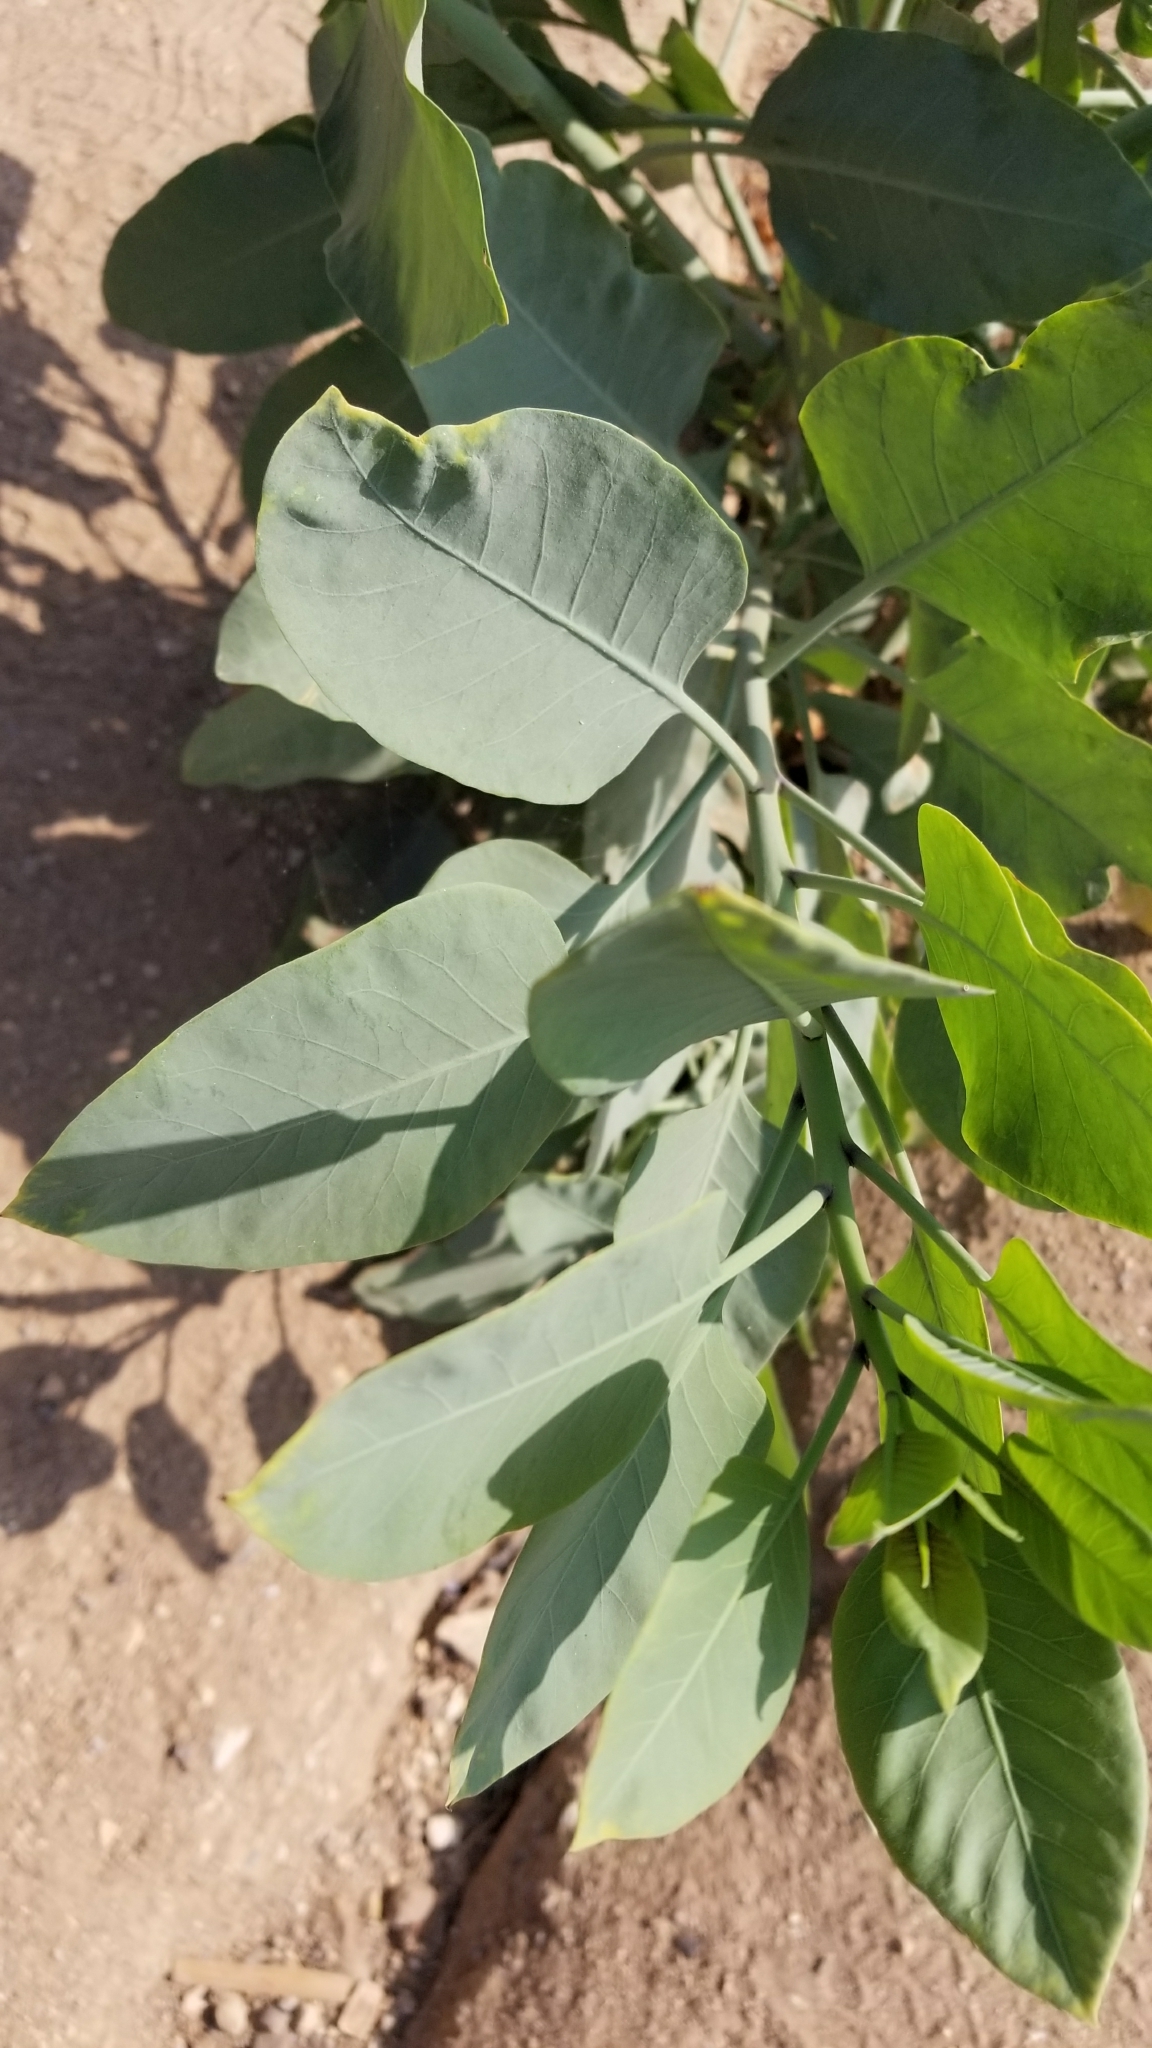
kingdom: Plantae
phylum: Tracheophyta
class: Magnoliopsida
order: Solanales
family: Solanaceae
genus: Nicotiana
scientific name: Nicotiana glauca
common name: Tree tobacco
